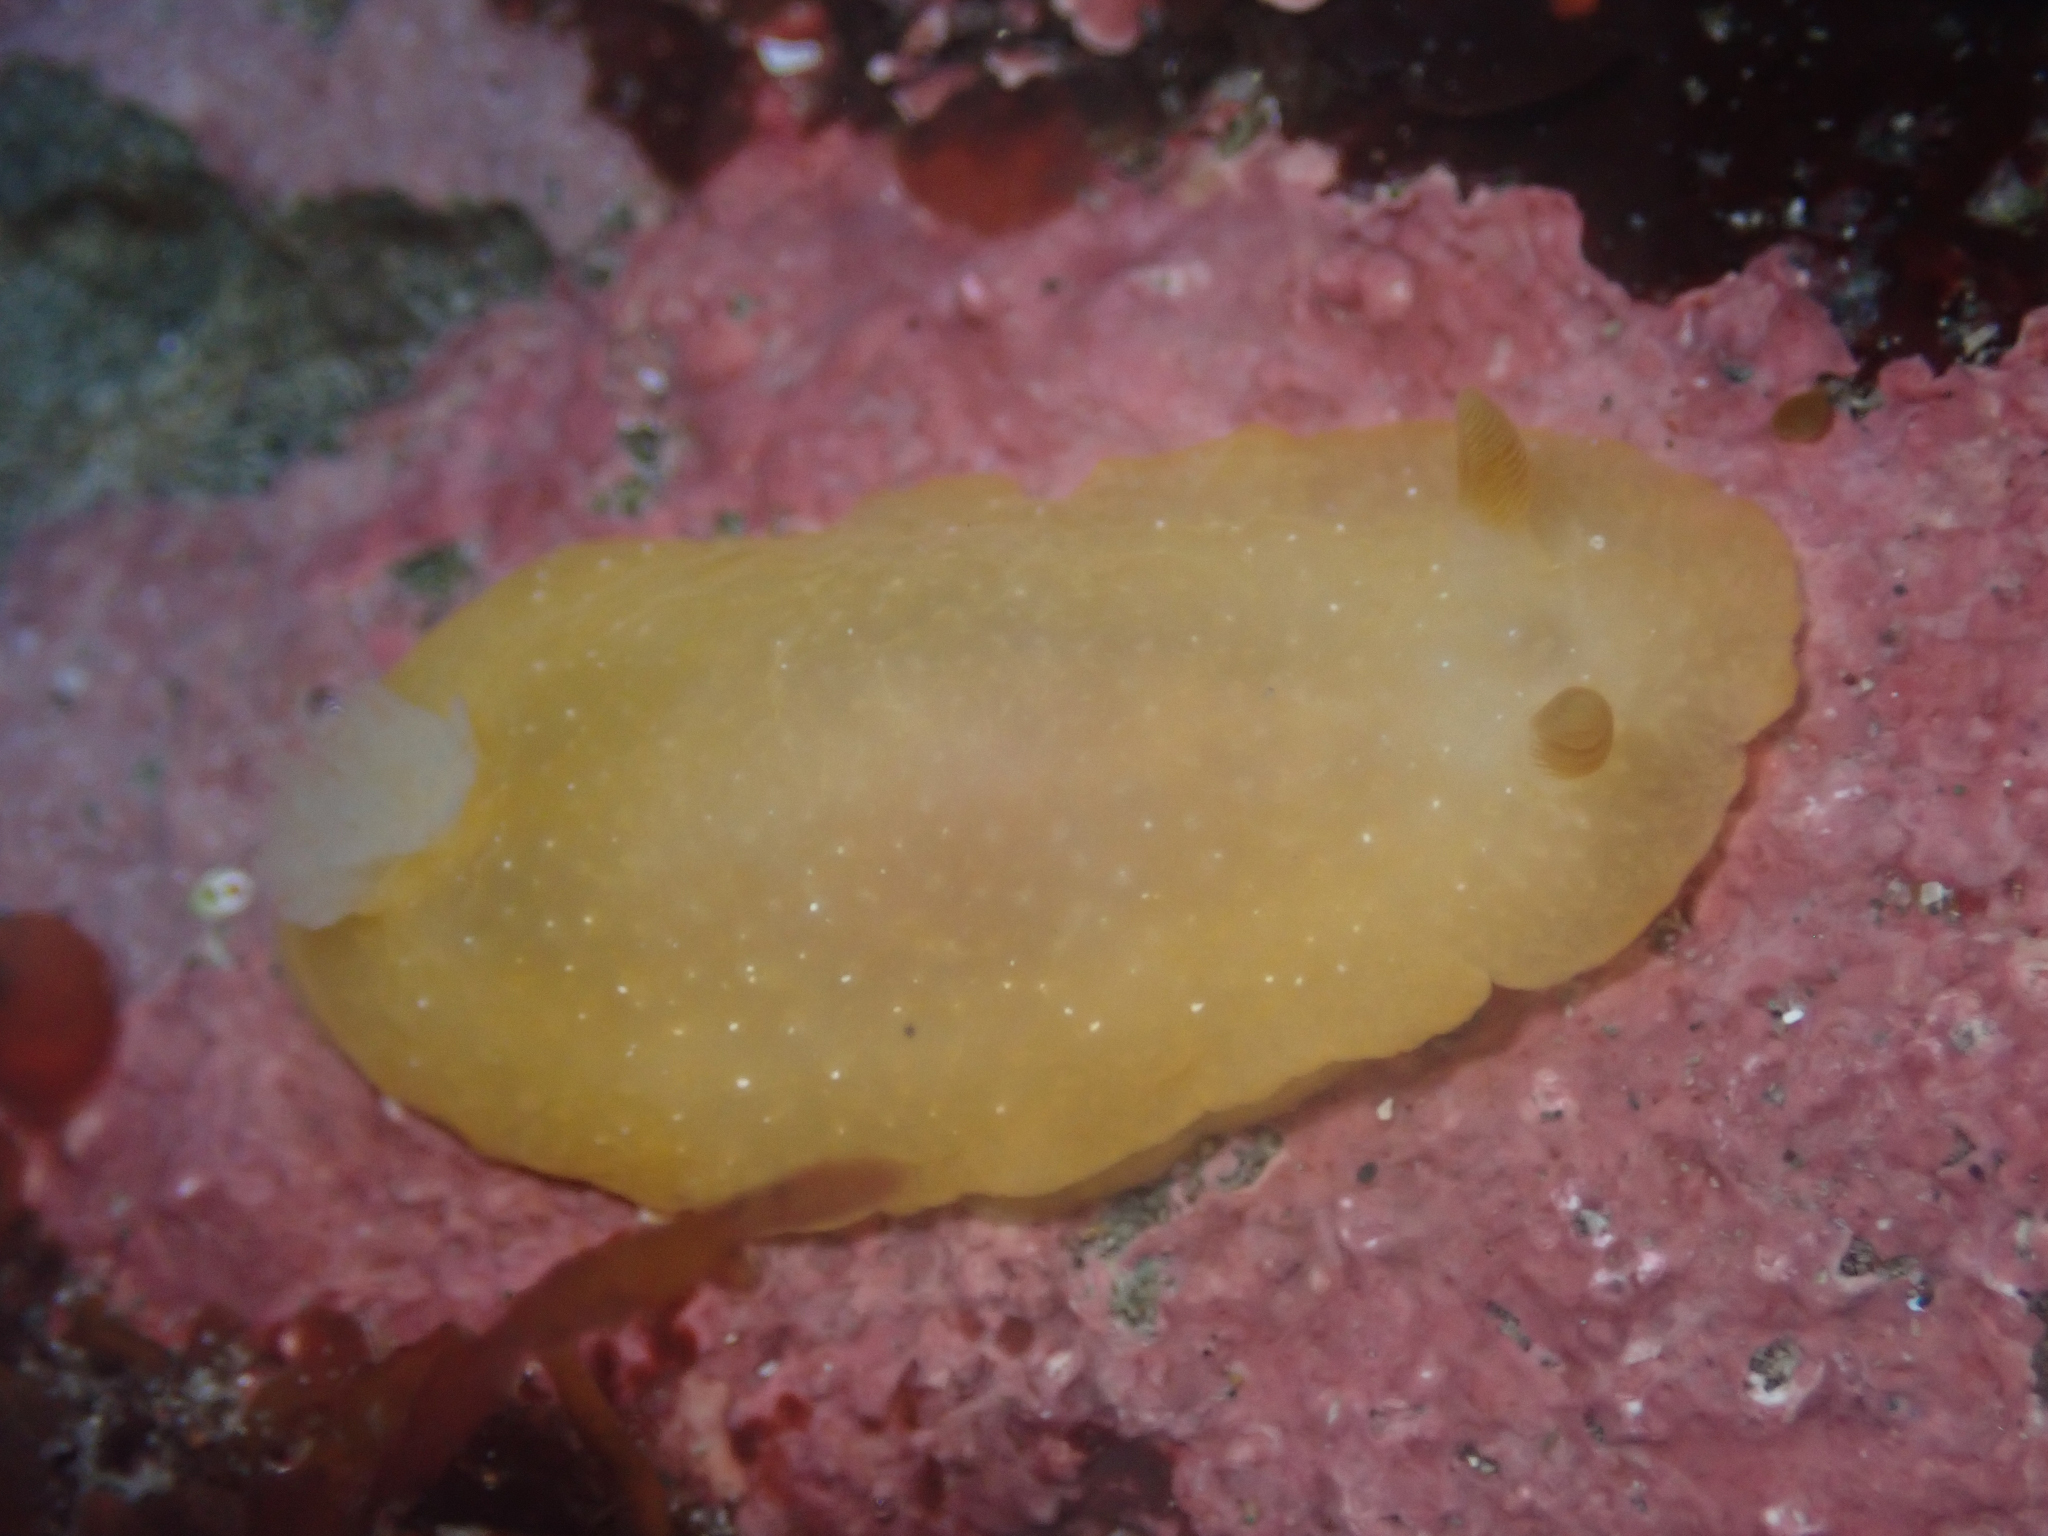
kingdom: Animalia
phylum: Mollusca
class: Gastropoda
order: Nudibranchia
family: Dendrodorididae
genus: Doriopsilla
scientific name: Doriopsilla fulva
